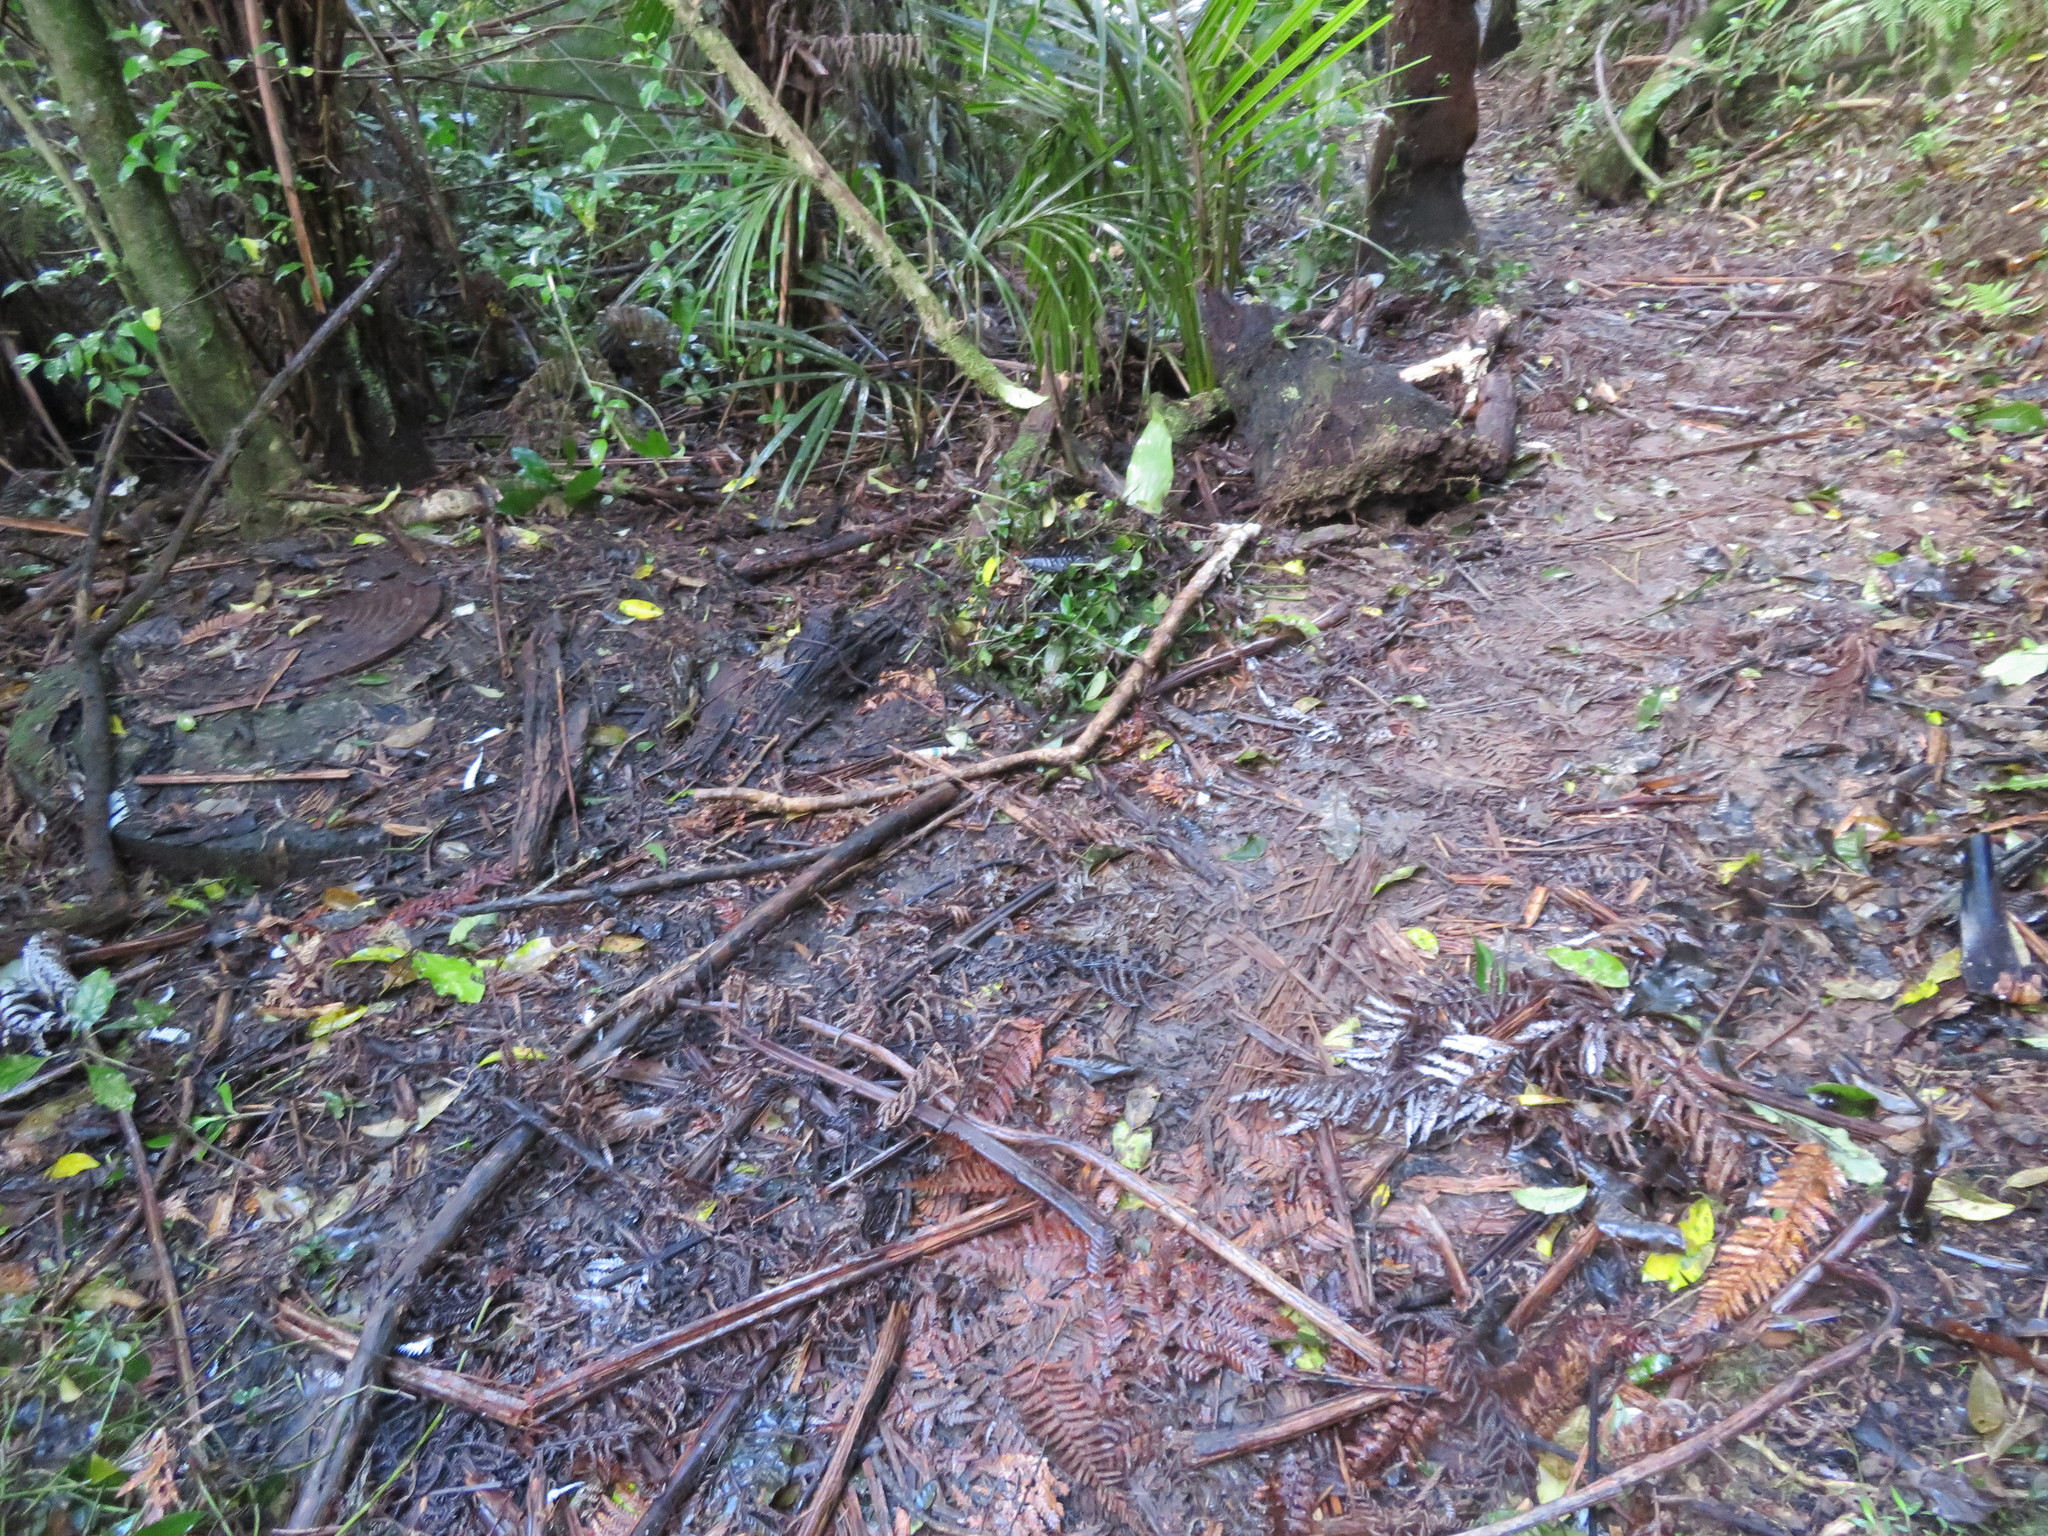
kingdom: Plantae
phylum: Tracheophyta
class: Magnoliopsida
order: Gentianales
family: Loganiaceae
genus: Geniostoma
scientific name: Geniostoma ligustrifolium
